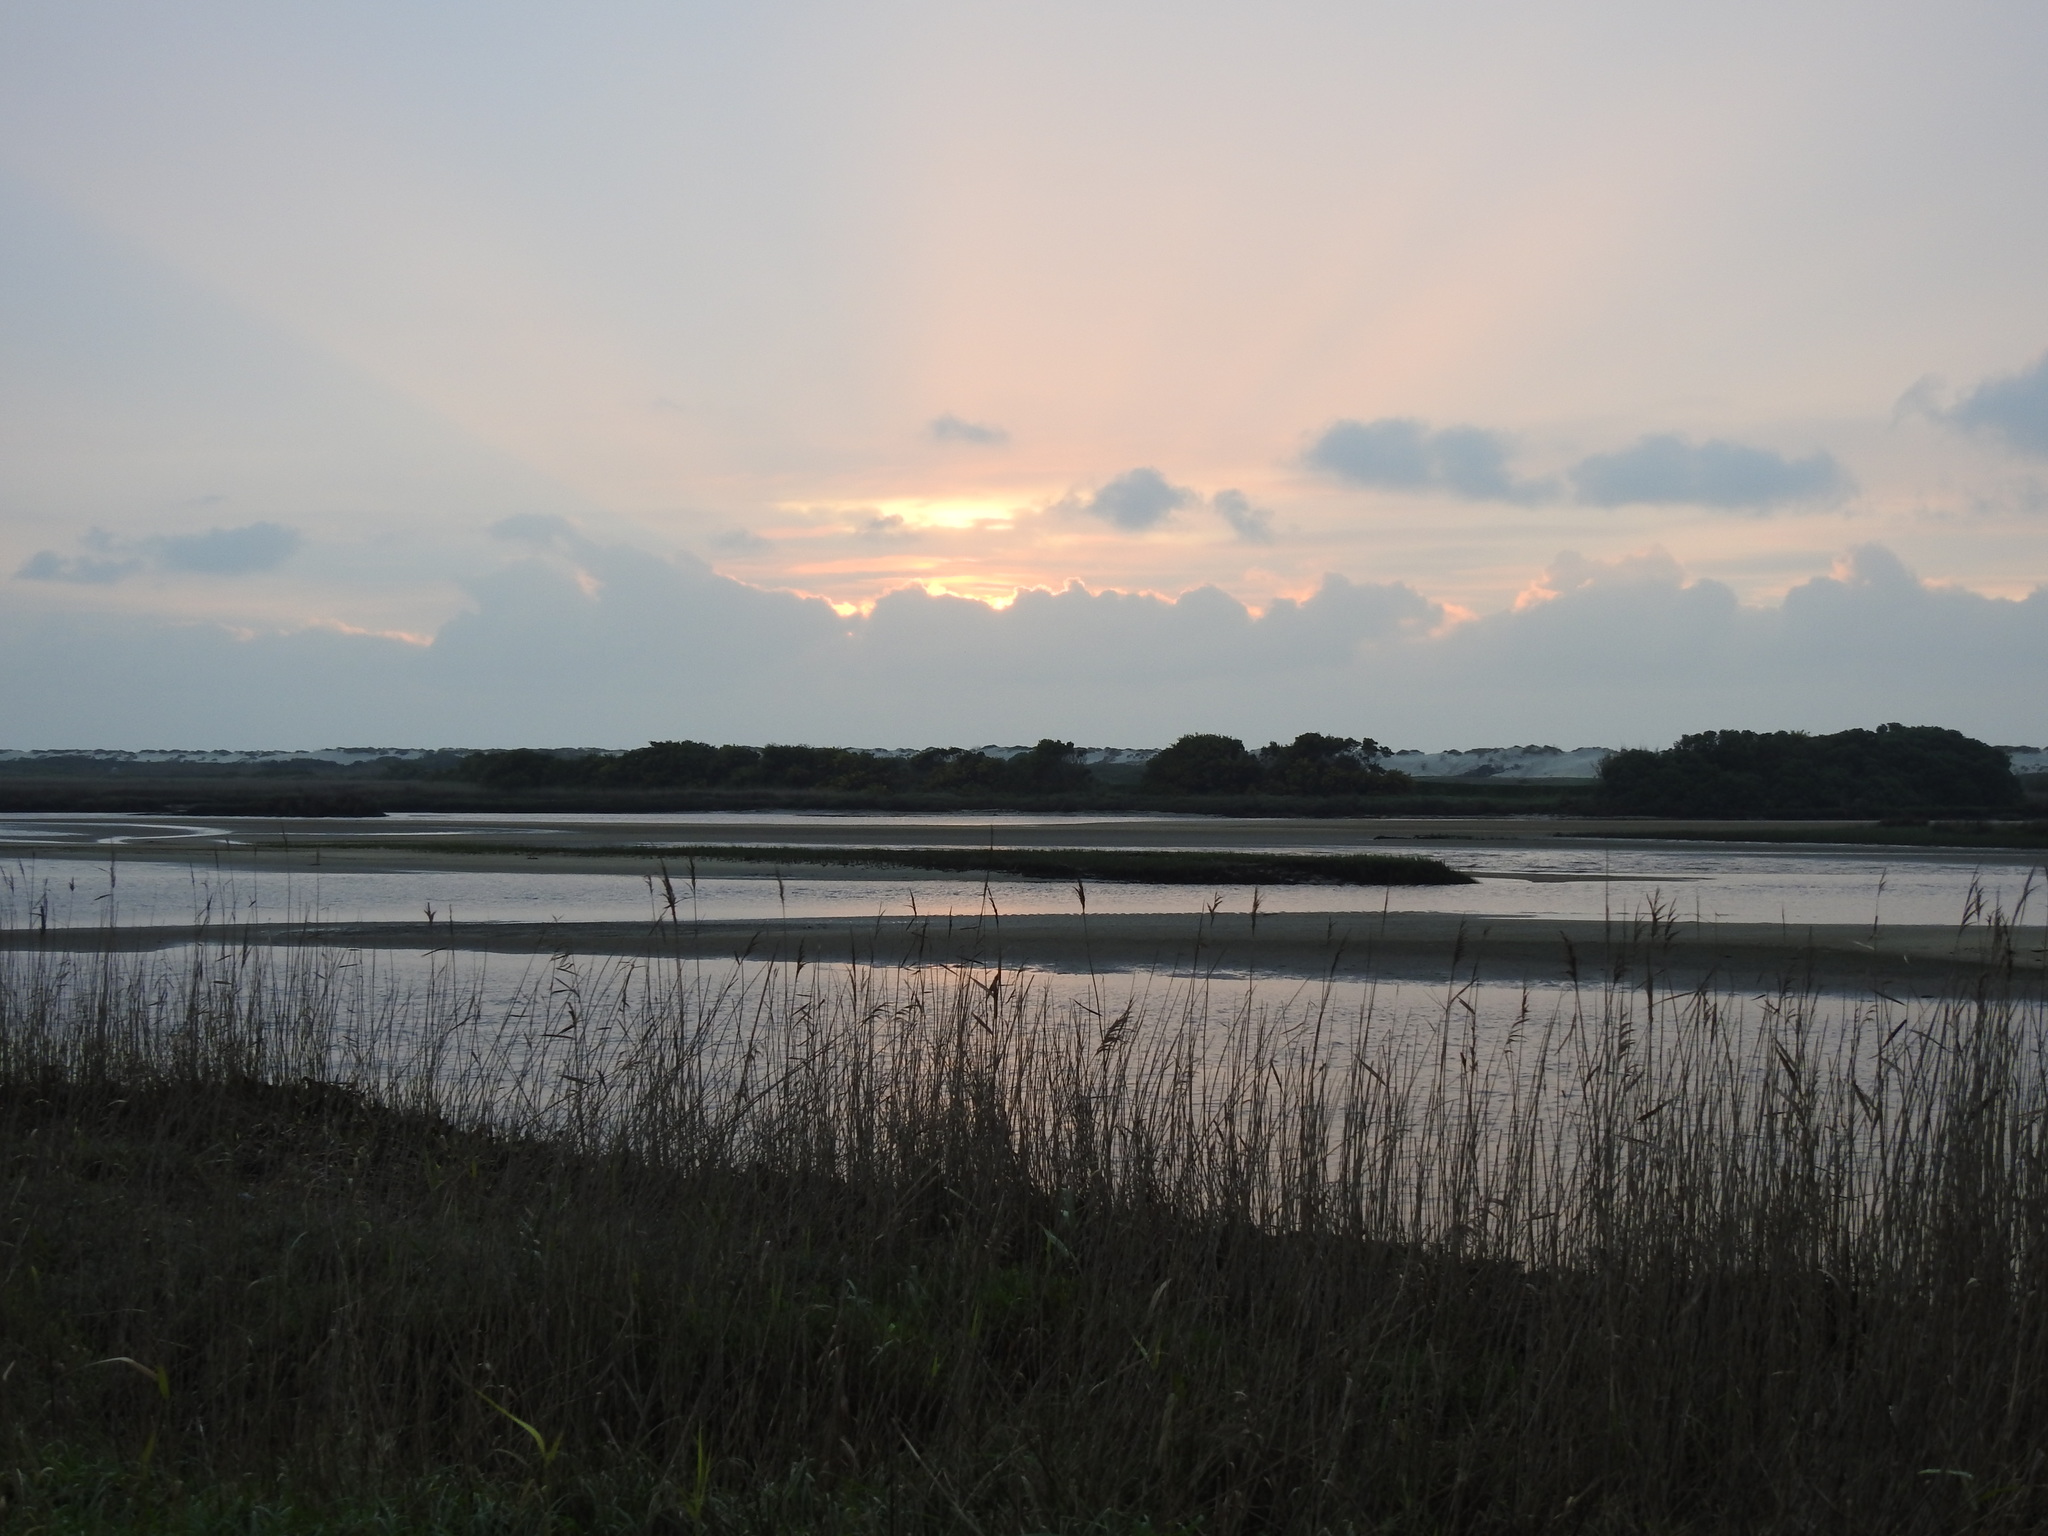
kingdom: Plantae
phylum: Tracheophyta
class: Liliopsida
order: Poales
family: Poaceae
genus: Phragmites
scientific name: Phragmites australis
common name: Common reed
